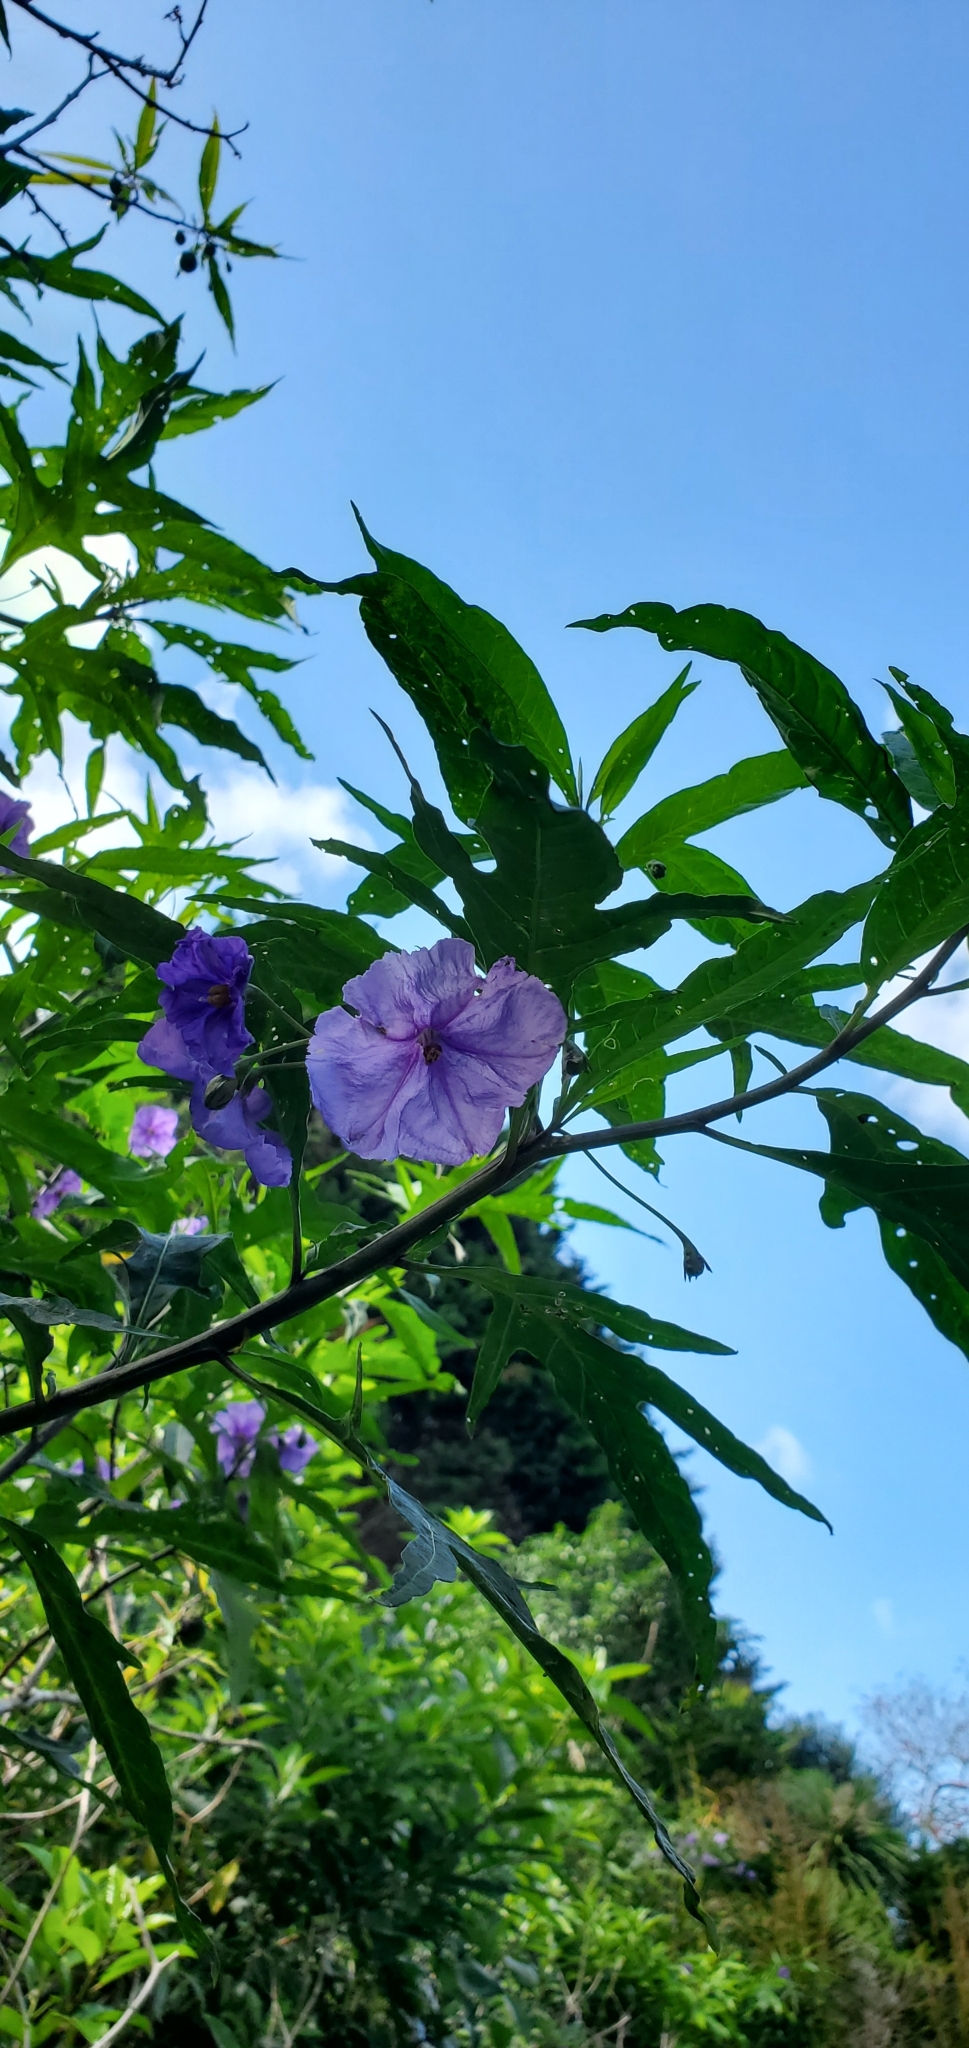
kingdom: Plantae
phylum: Tracheophyta
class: Magnoliopsida
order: Solanales
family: Solanaceae
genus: Solanum
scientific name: Solanum laciniatum
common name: Kangaroo-apple
